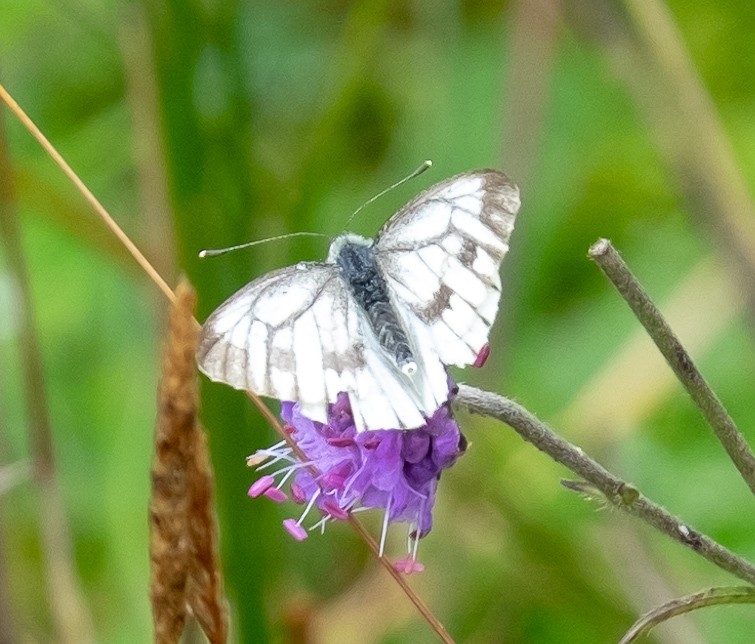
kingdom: Animalia
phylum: Arthropoda
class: Insecta
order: Lepidoptera
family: Pieridae
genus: Pieris
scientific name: Pieris napi
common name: Green-veined white
